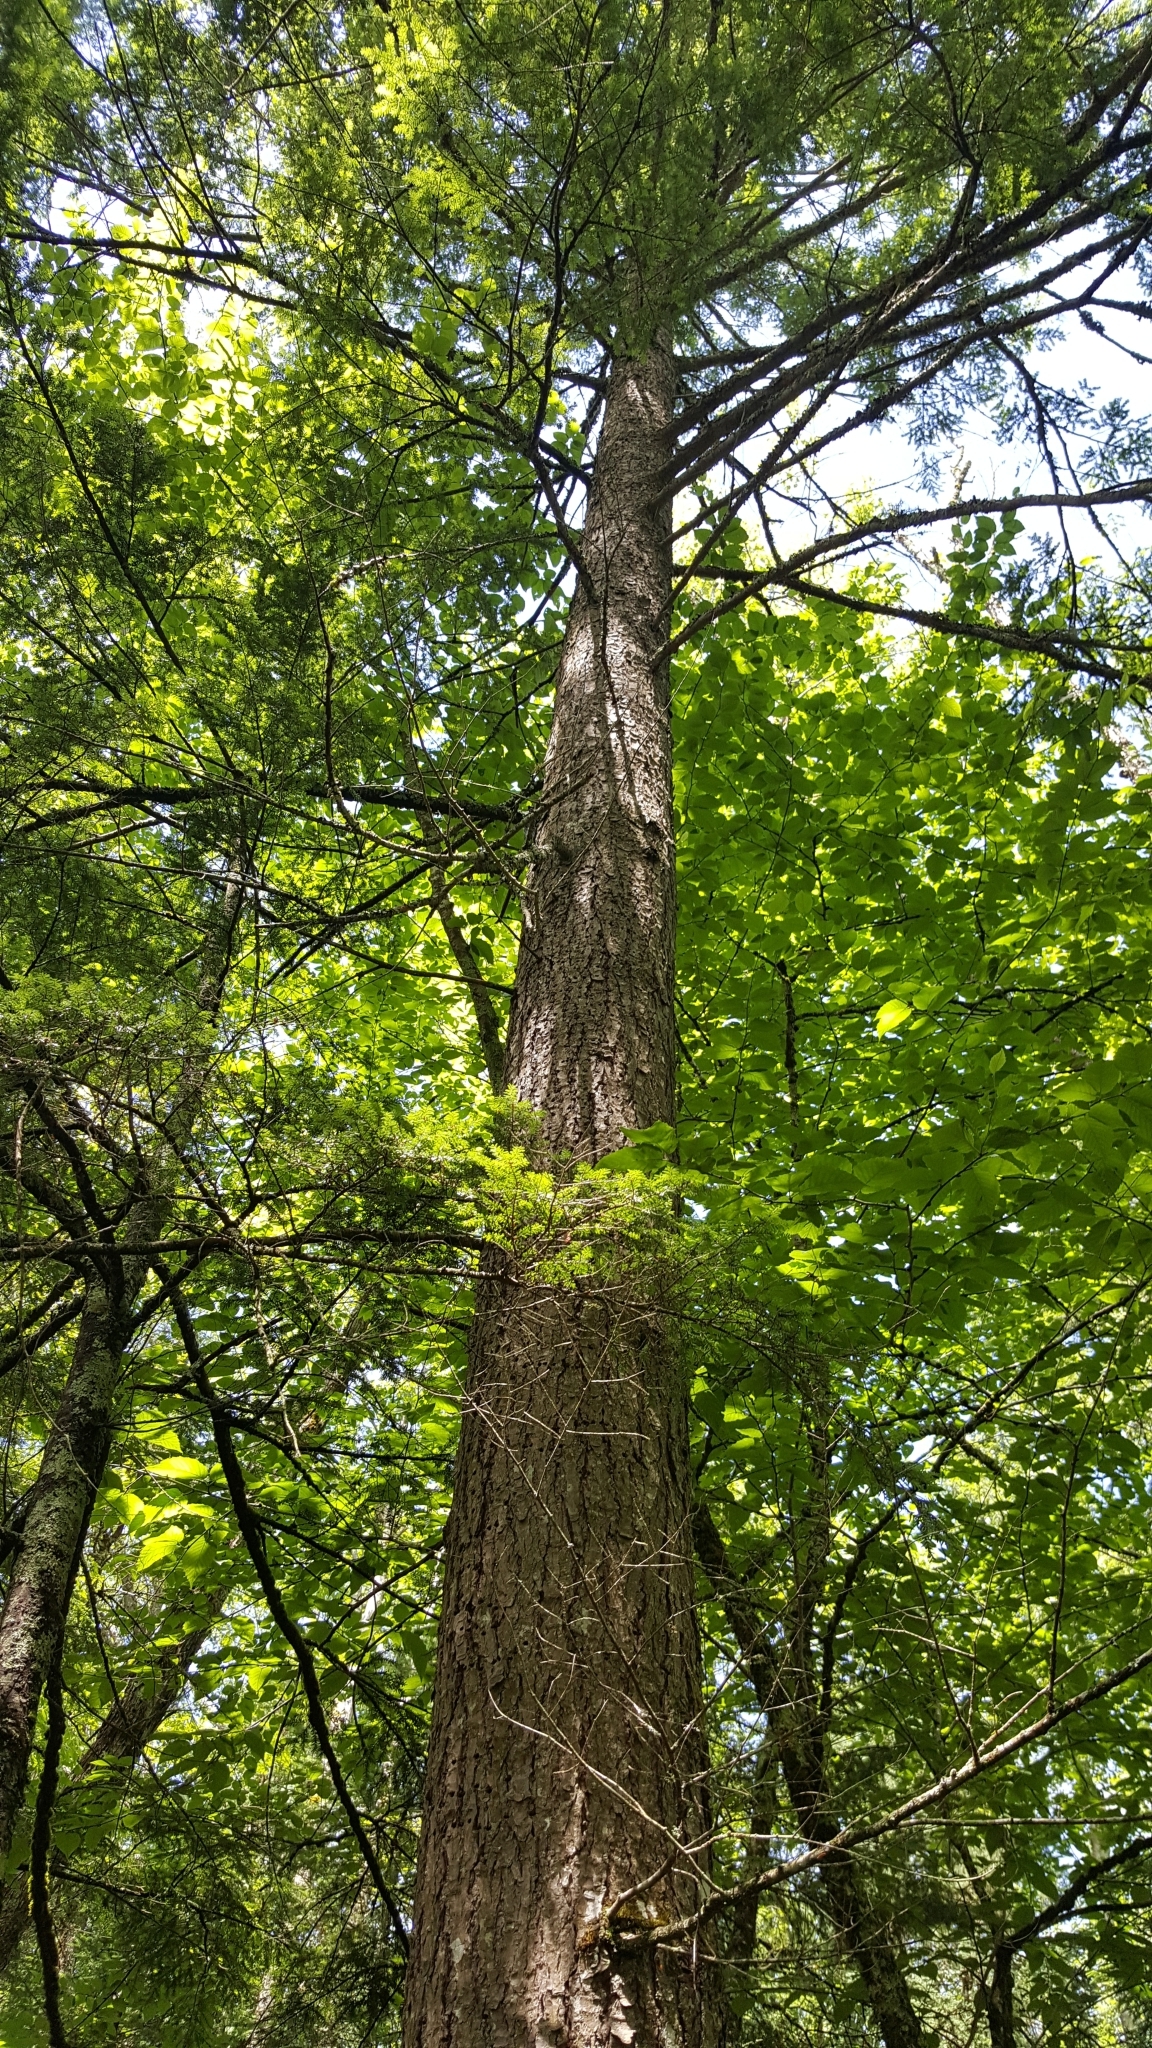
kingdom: Plantae
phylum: Tracheophyta
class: Pinopsida
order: Pinales
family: Pinaceae
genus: Tsuga
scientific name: Tsuga canadensis
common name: Eastern hemlock
